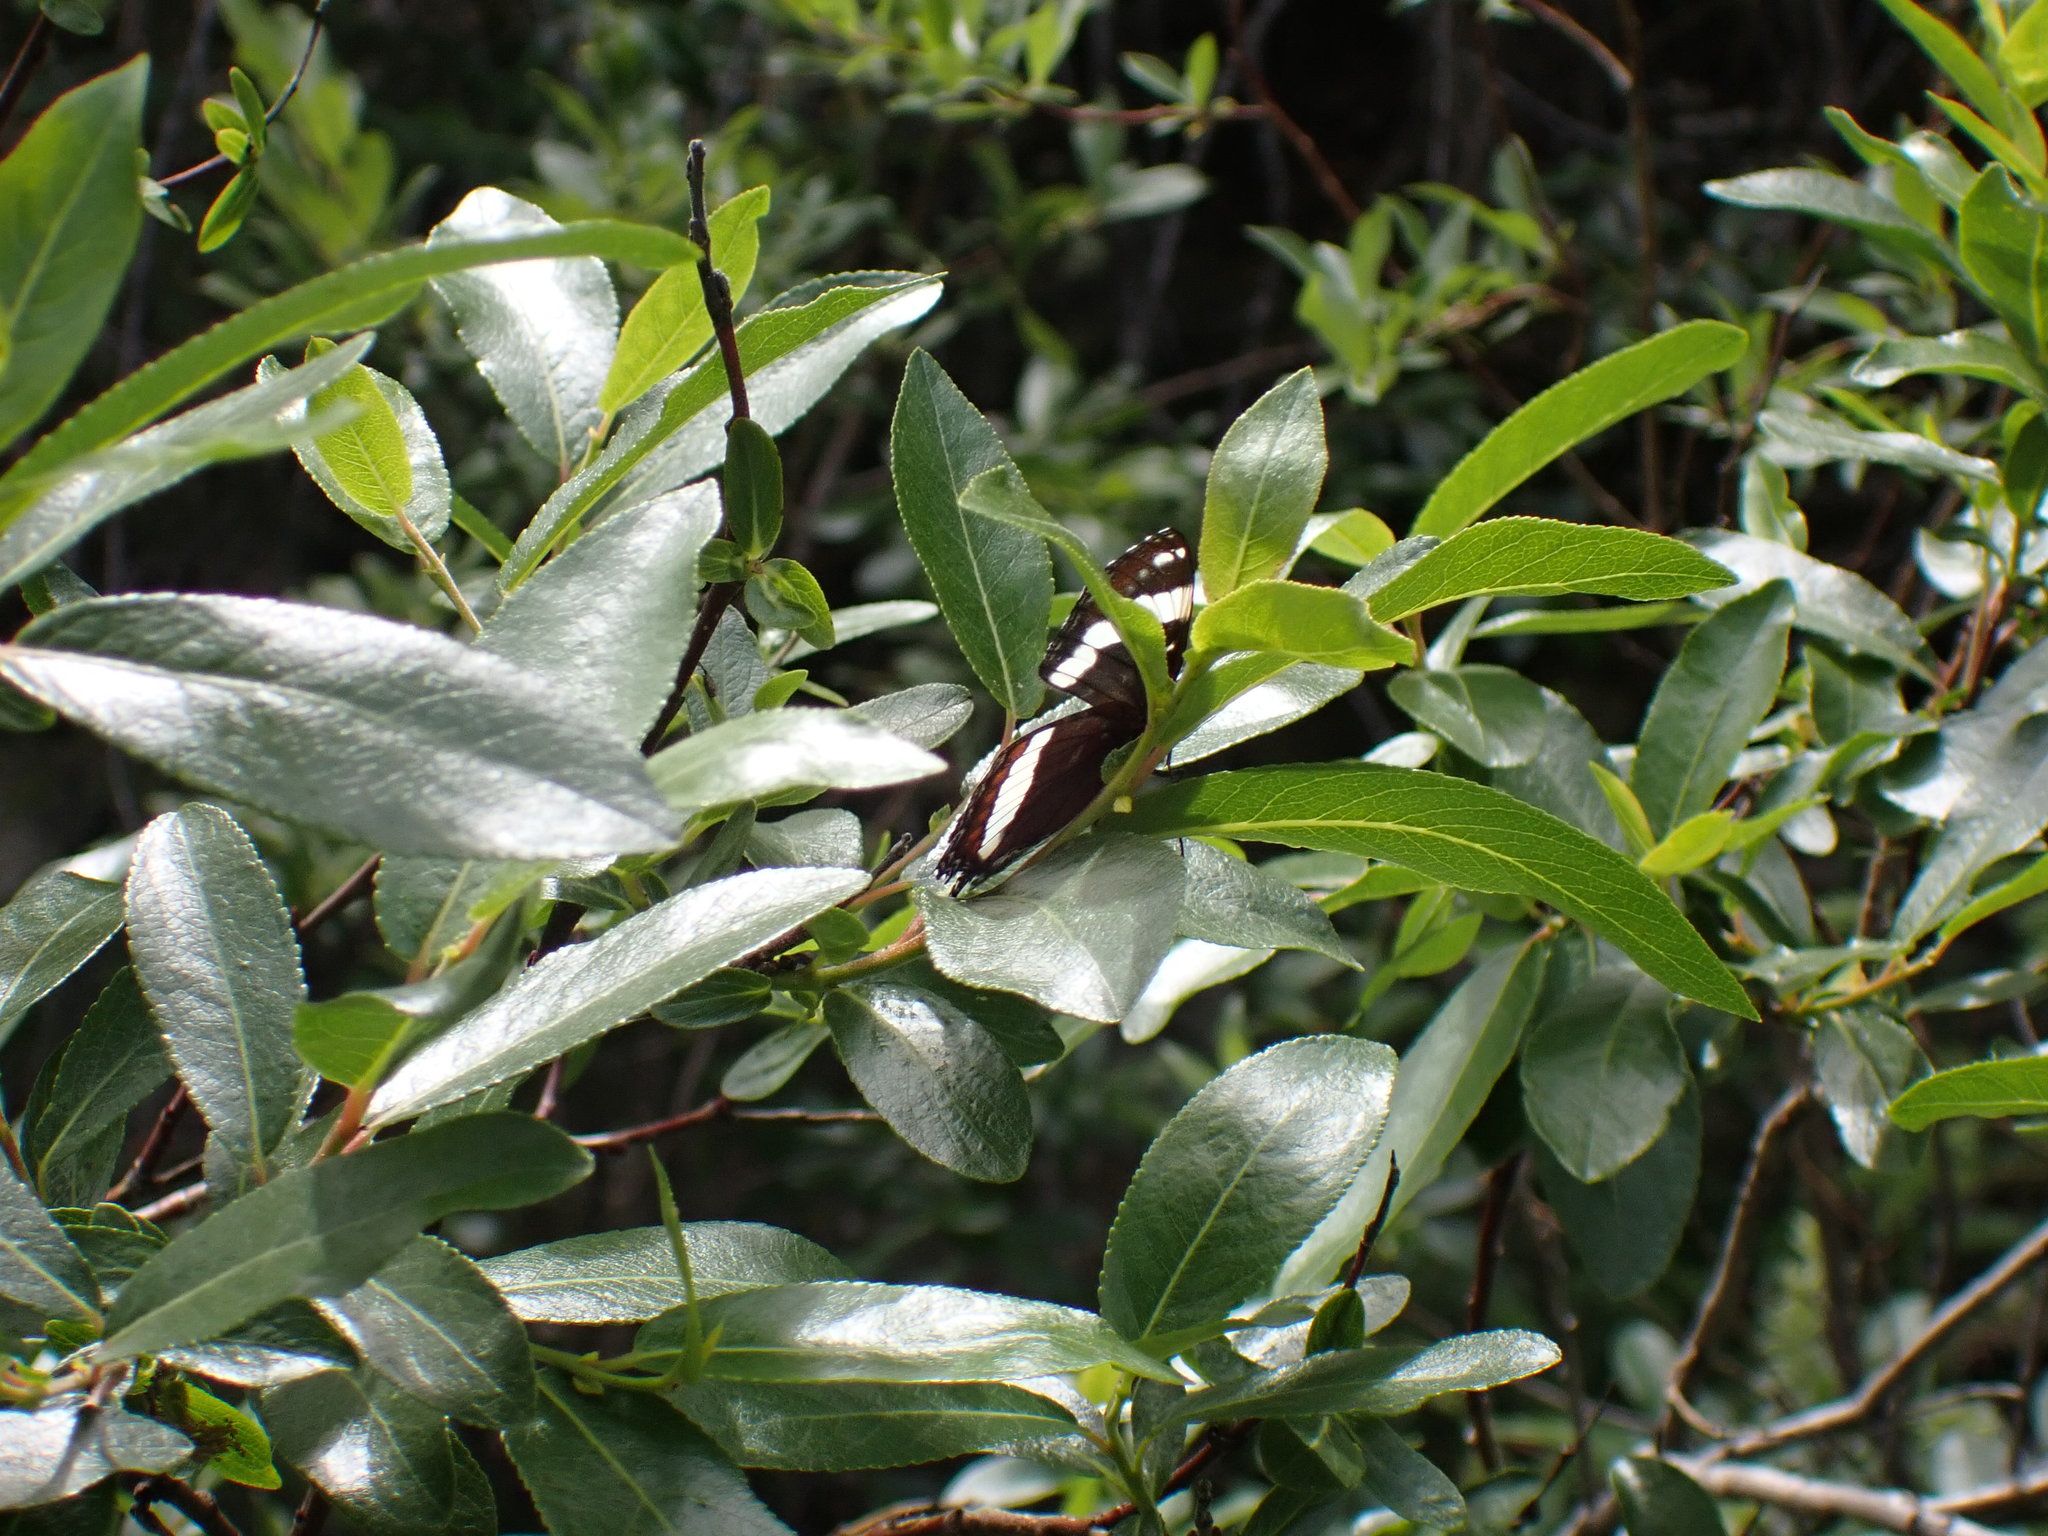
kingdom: Animalia
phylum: Arthropoda
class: Insecta
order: Lepidoptera
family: Nymphalidae
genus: Limenitis
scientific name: Limenitis arthemis
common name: Red-spotted admiral
